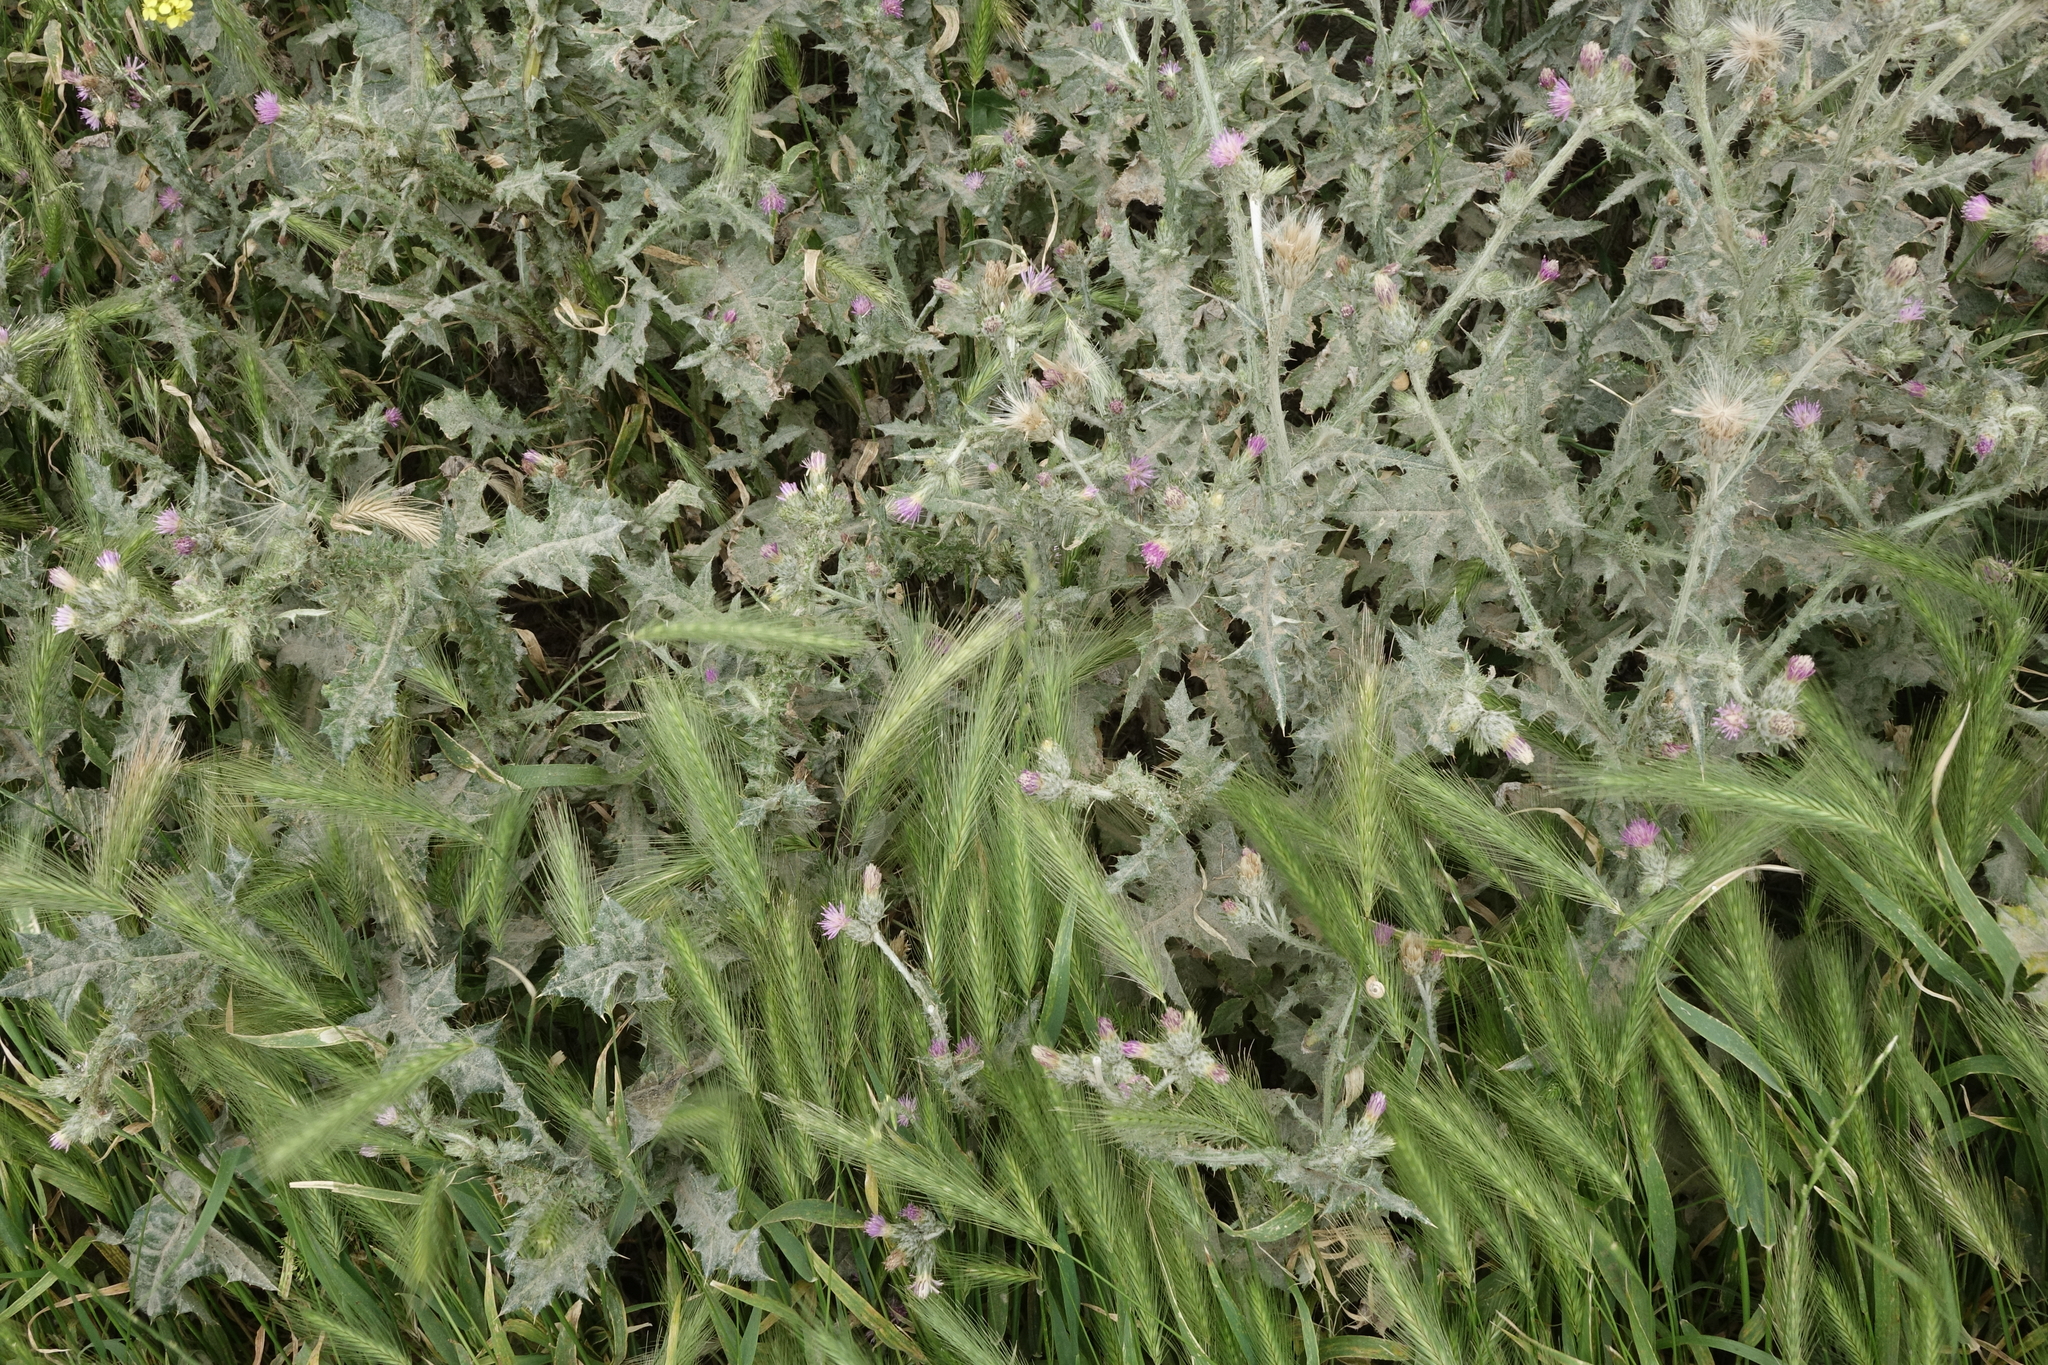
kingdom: Plantae
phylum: Tracheophyta
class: Liliopsida
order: Poales
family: Poaceae
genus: Hordeum
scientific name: Hordeum murinum
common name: Wall barley
